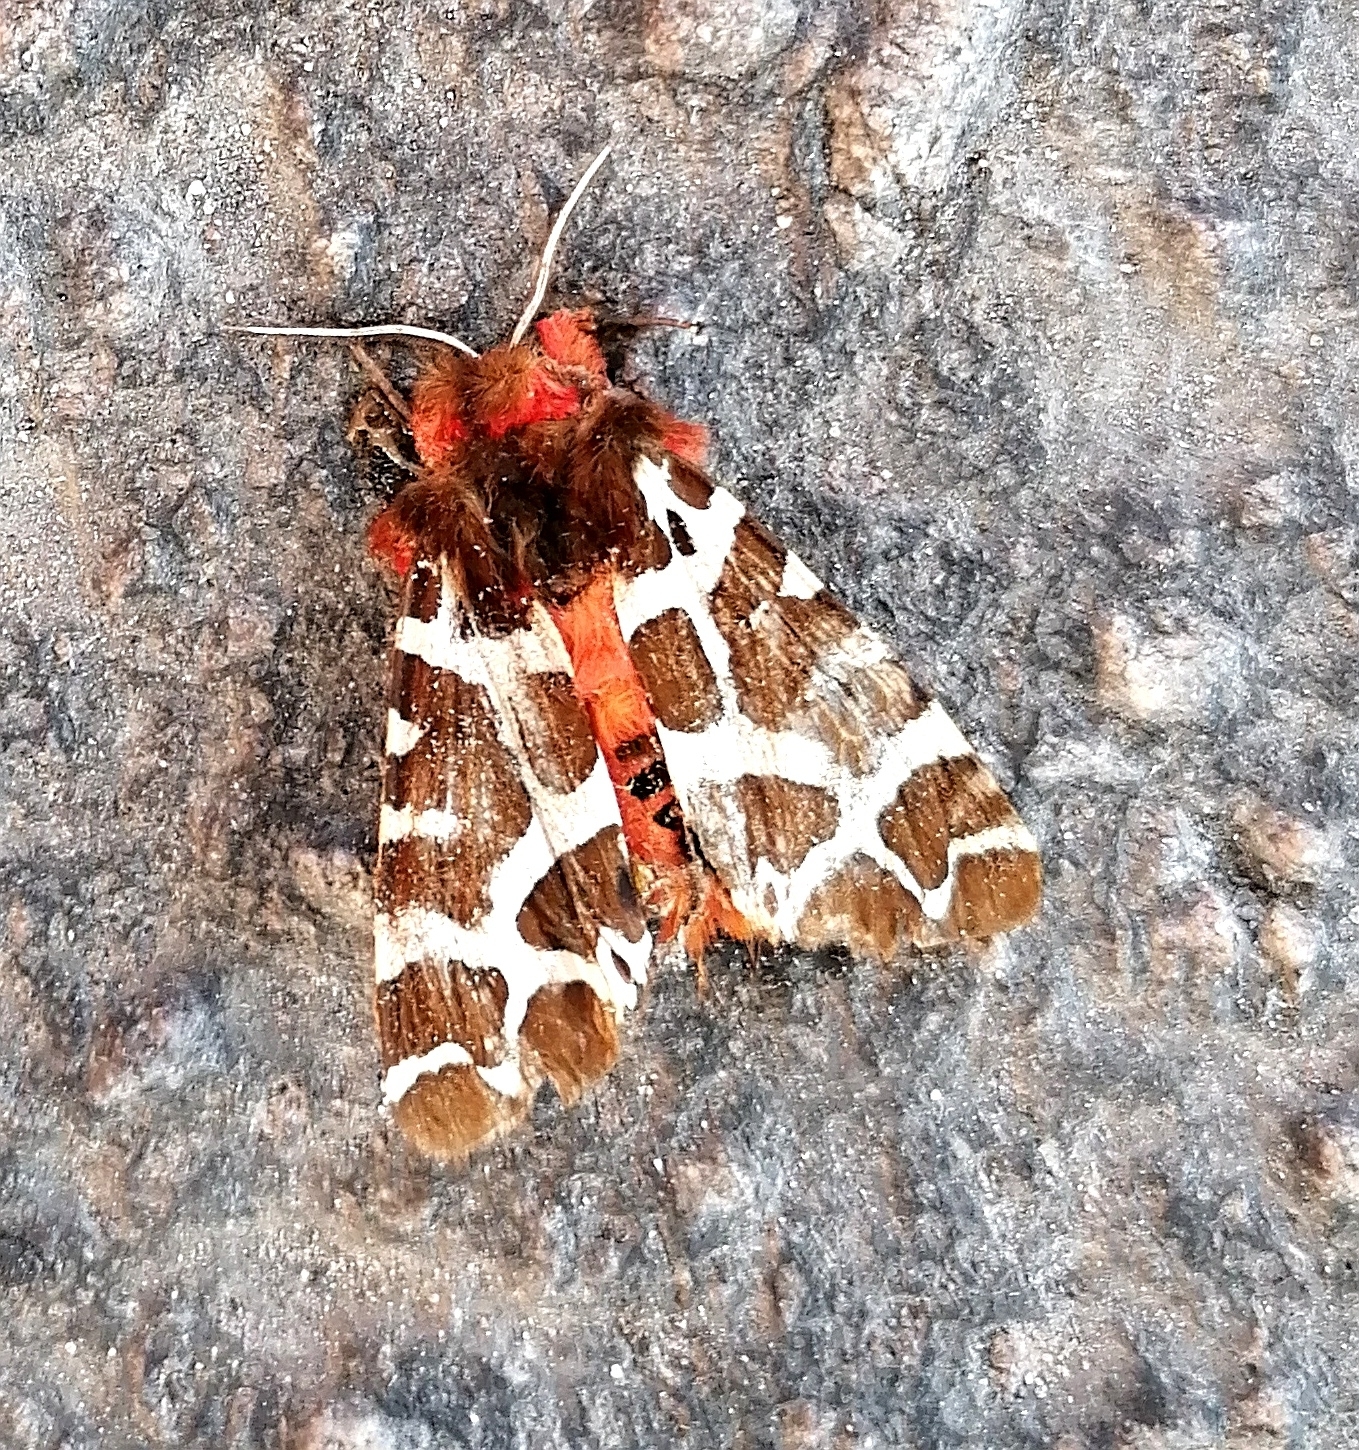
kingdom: Animalia
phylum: Arthropoda
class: Insecta
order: Lepidoptera
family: Erebidae
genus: Arctia
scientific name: Arctia caja
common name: Garden tiger
